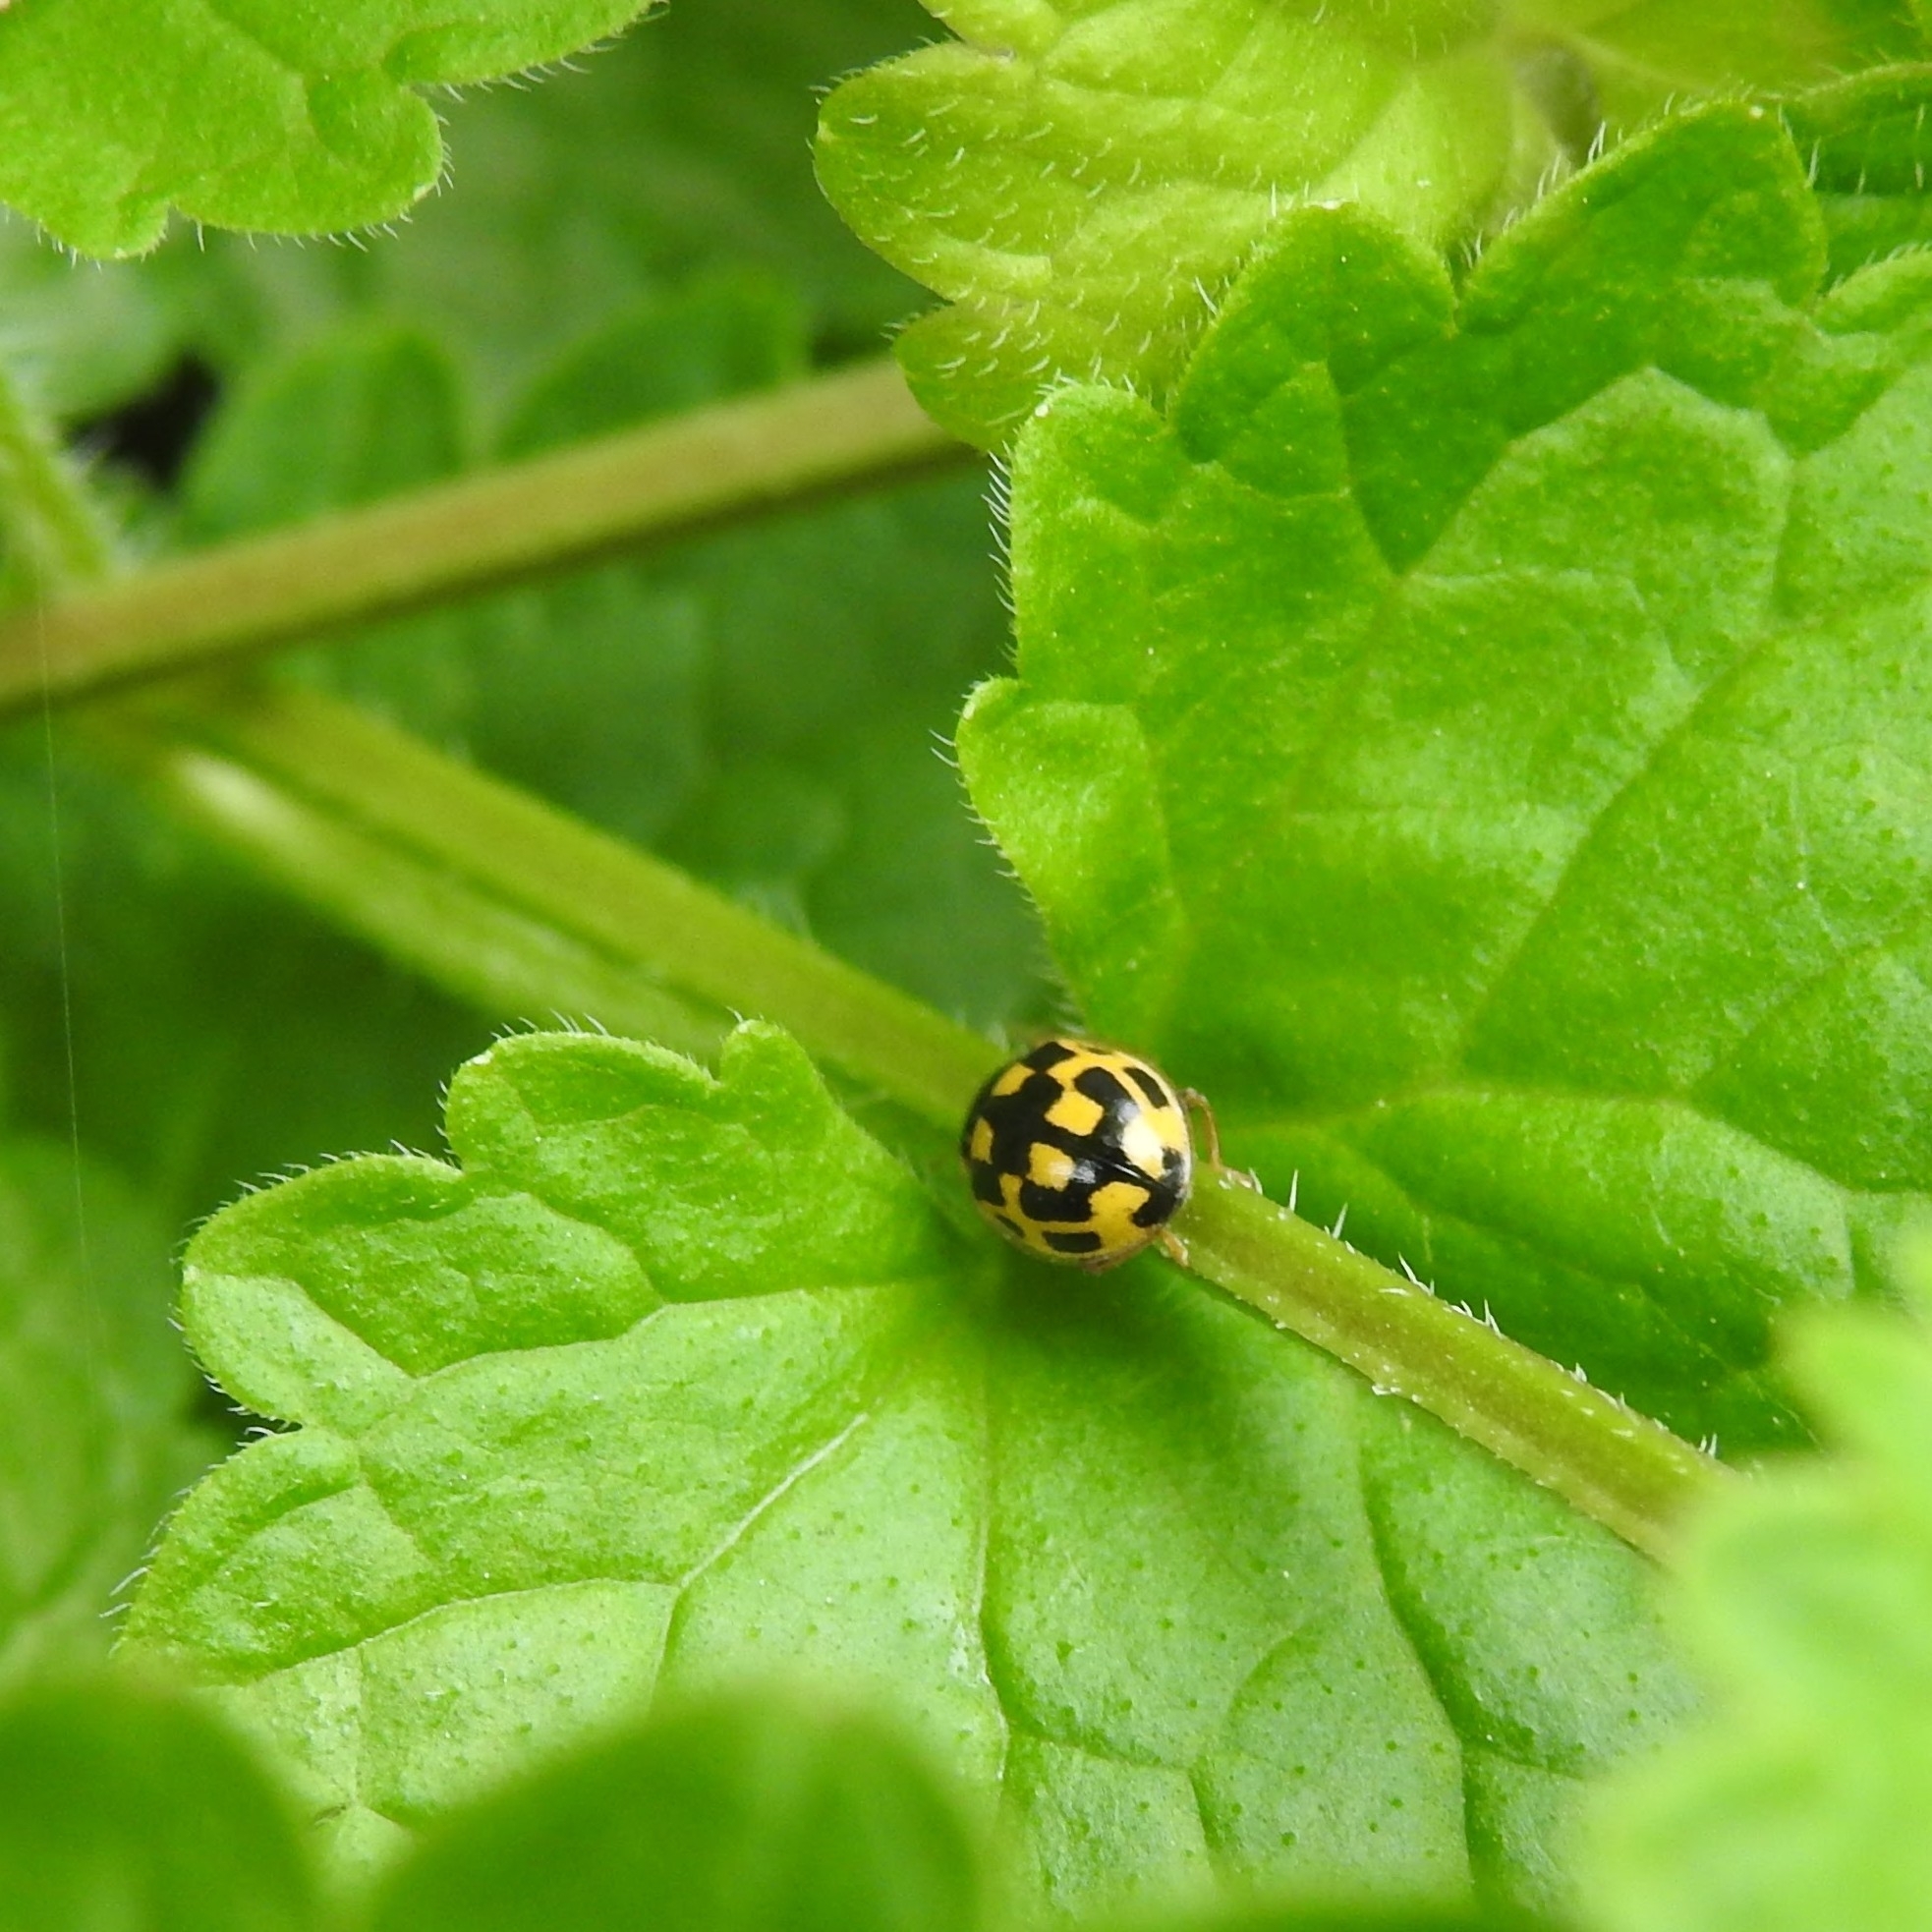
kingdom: Animalia
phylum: Arthropoda
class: Insecta
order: Coleoptera
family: Coccinellidae
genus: Propylaea
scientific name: Propylaea quatuordecimpunctata
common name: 14-spotted ladybird beetle
